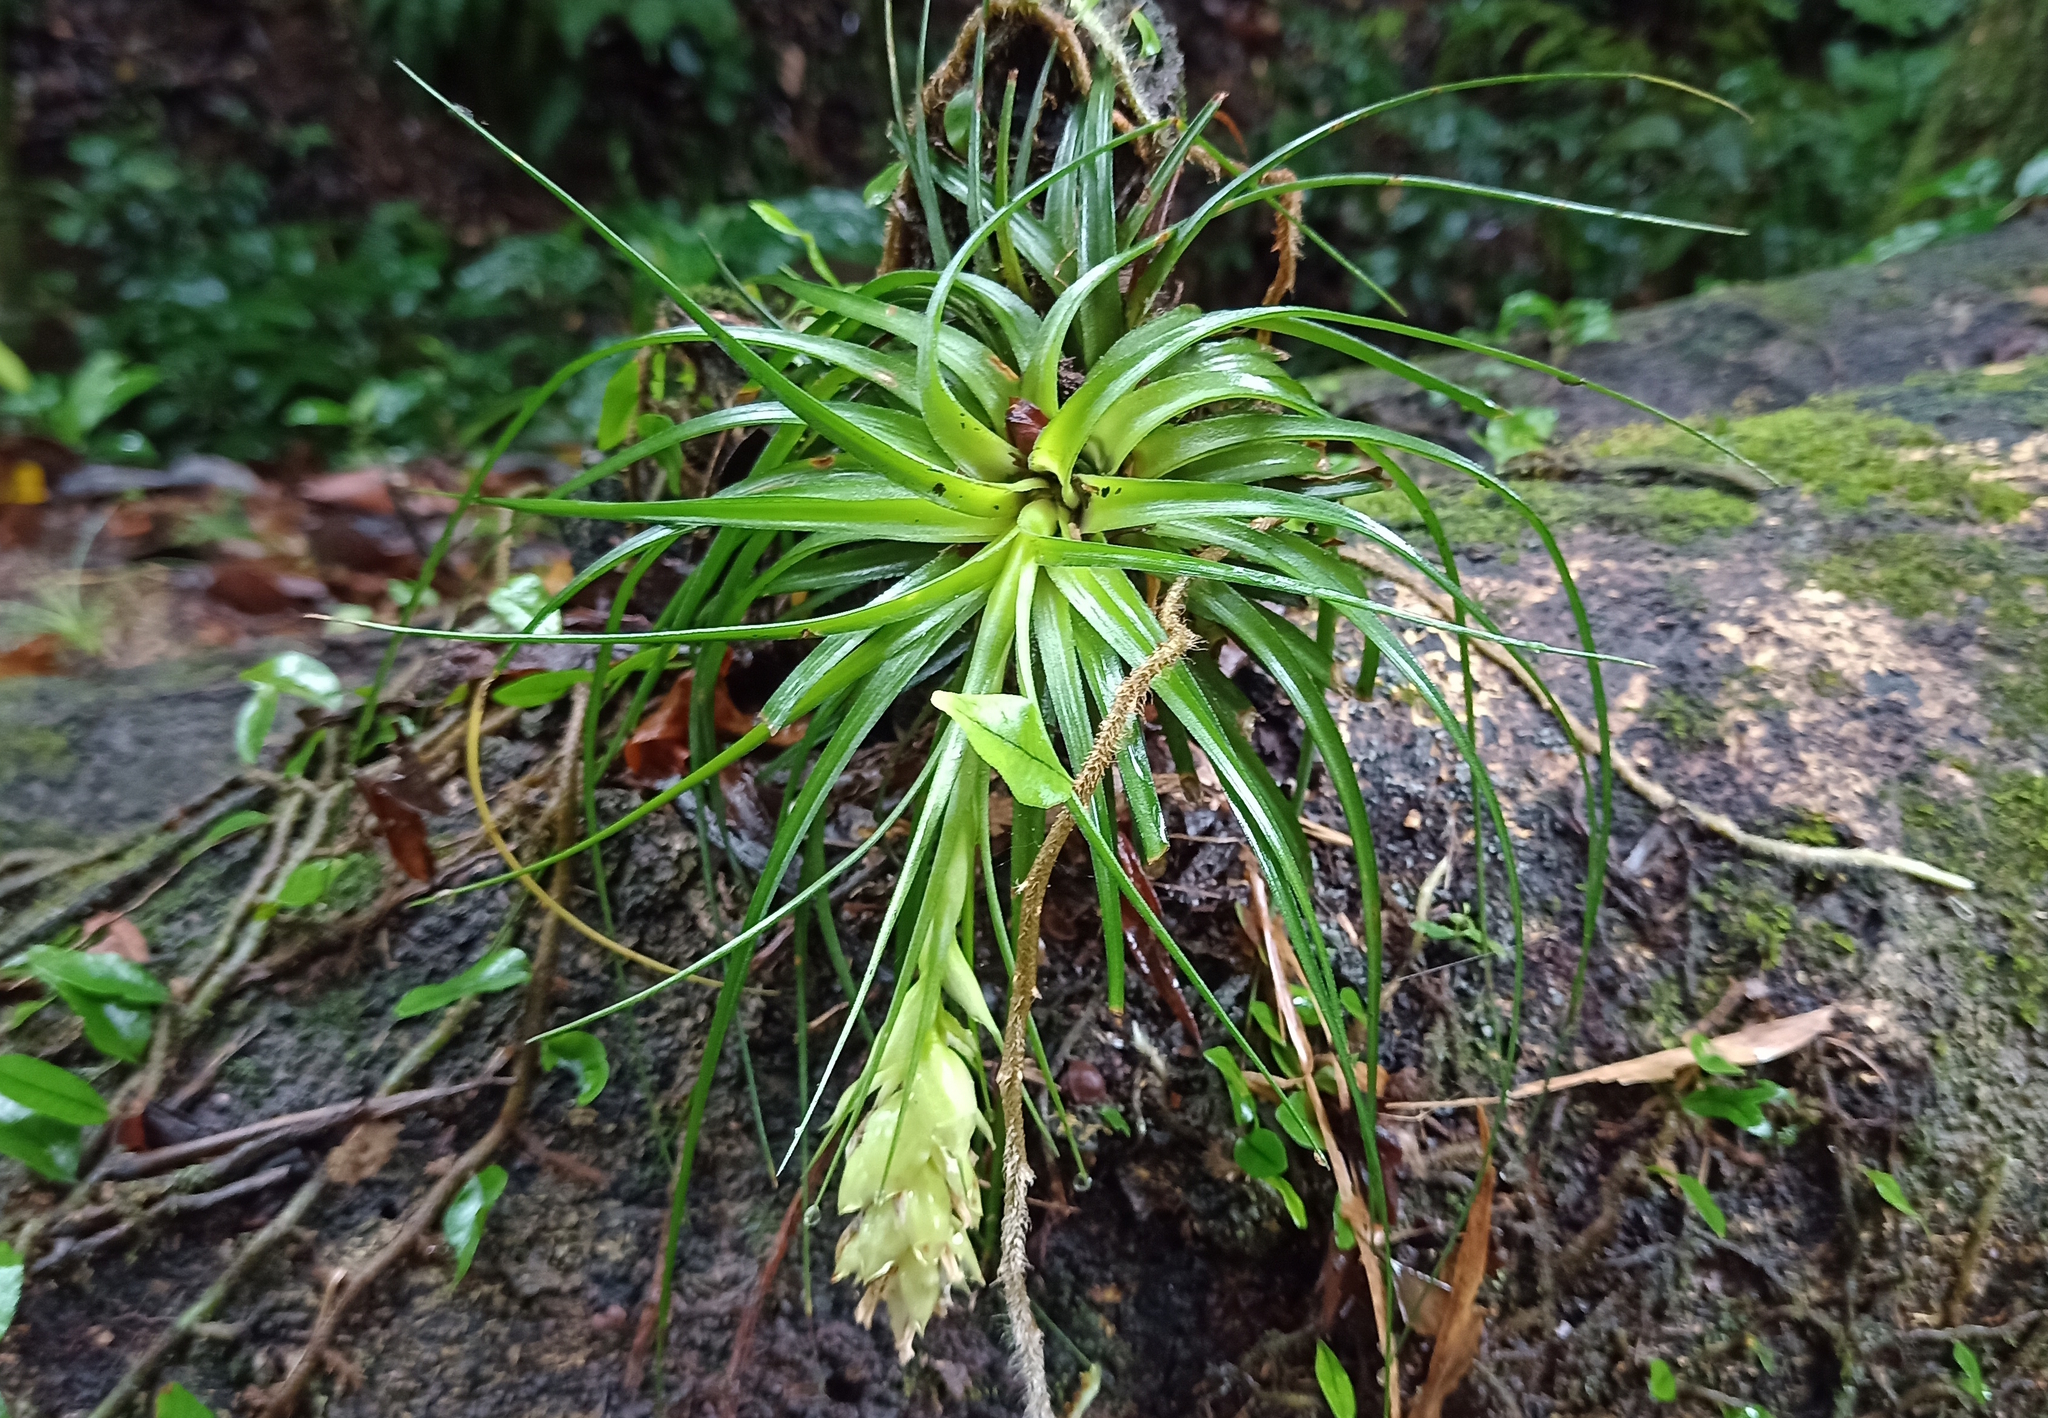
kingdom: Plantae
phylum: Tracheophyta
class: Liliopsida
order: Poales
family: Bromeliaceae
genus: Tillandsia
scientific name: Tillandsia stricta
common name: Airplant
